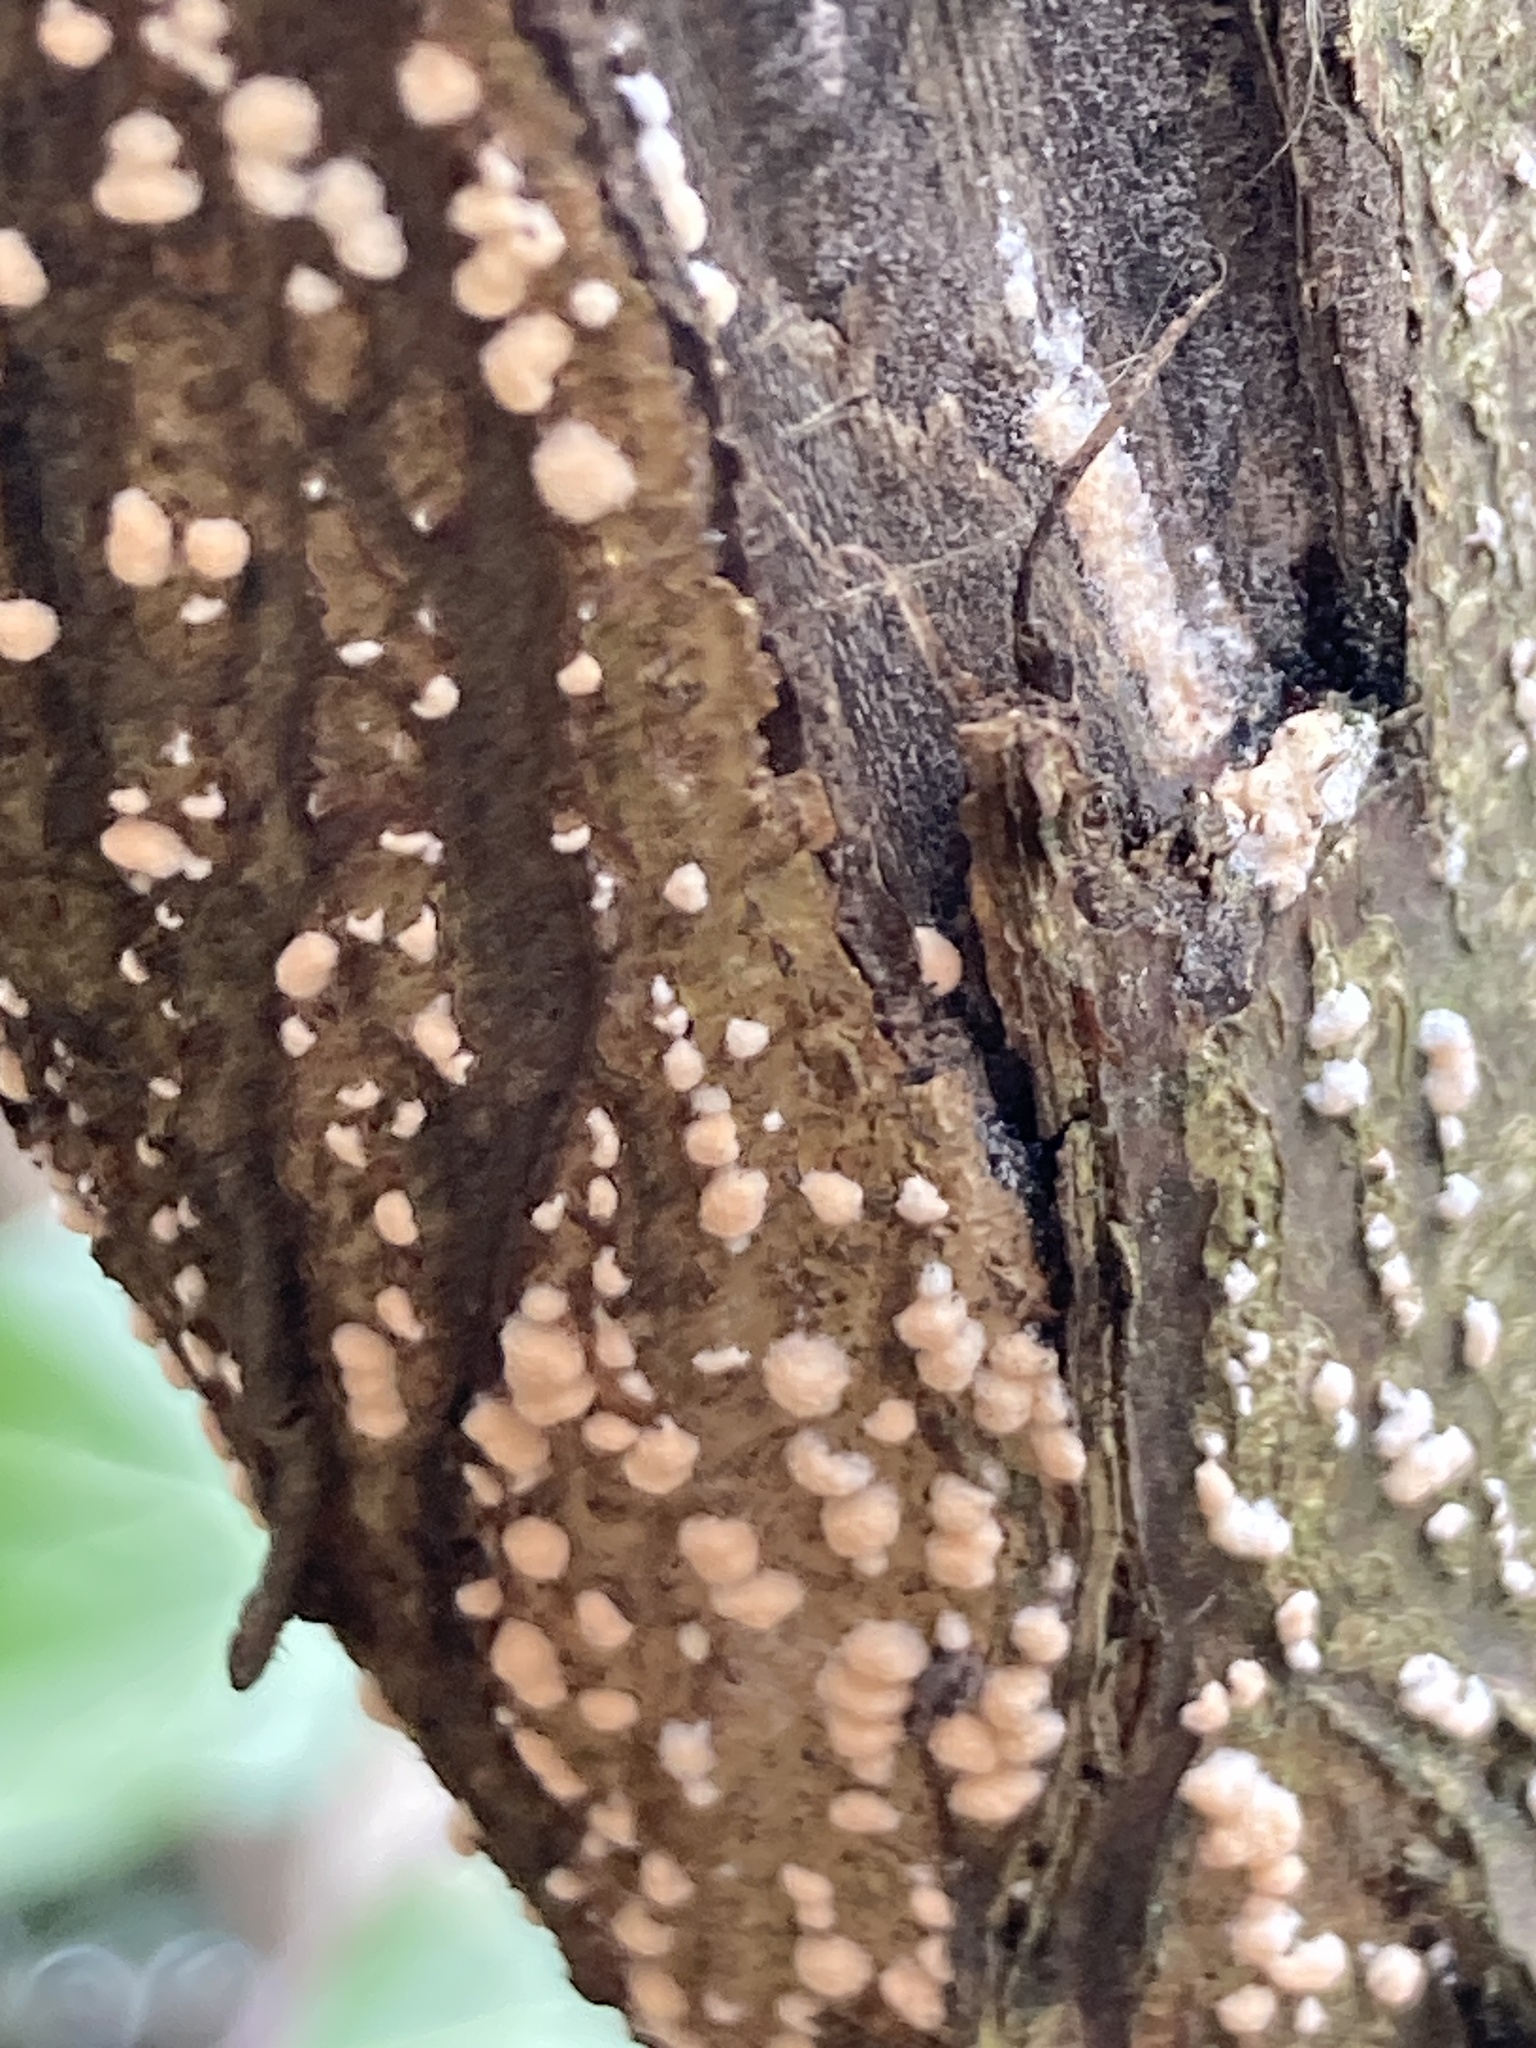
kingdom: Fungi
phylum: Ascomycota
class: Sordariomycetes
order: Hypocreales
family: Nectriaceae
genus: Nectria
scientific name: Nectria cinnabarina
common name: Coral spot
